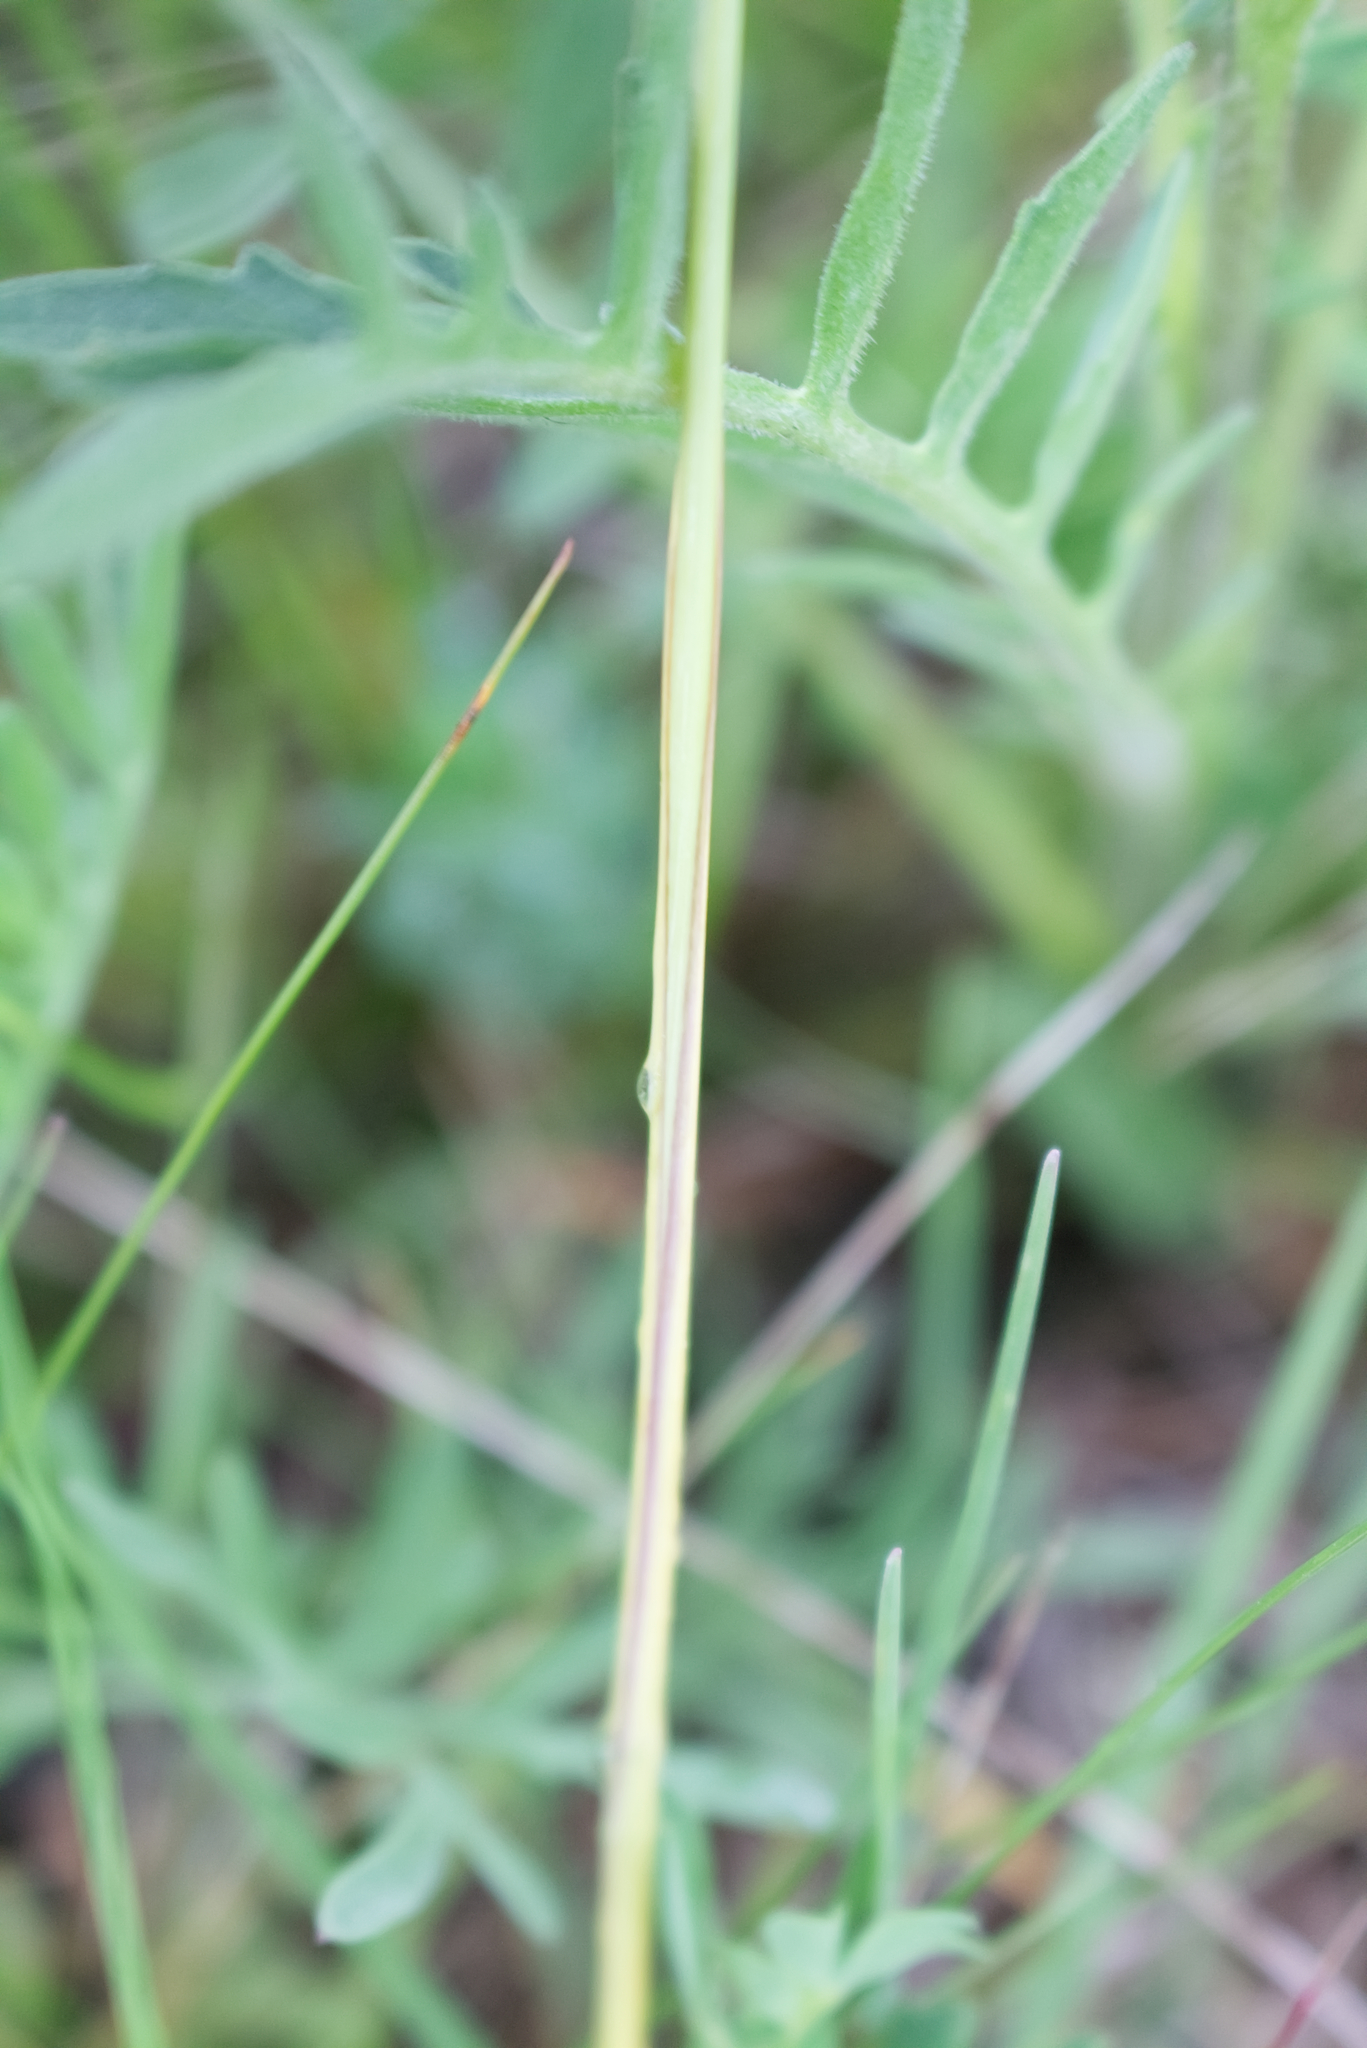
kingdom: Plantae
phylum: Tracheophyta
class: Liliopsida
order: Poales
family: Poaceae
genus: Stipa
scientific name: Stipa pennata
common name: European feather grass
